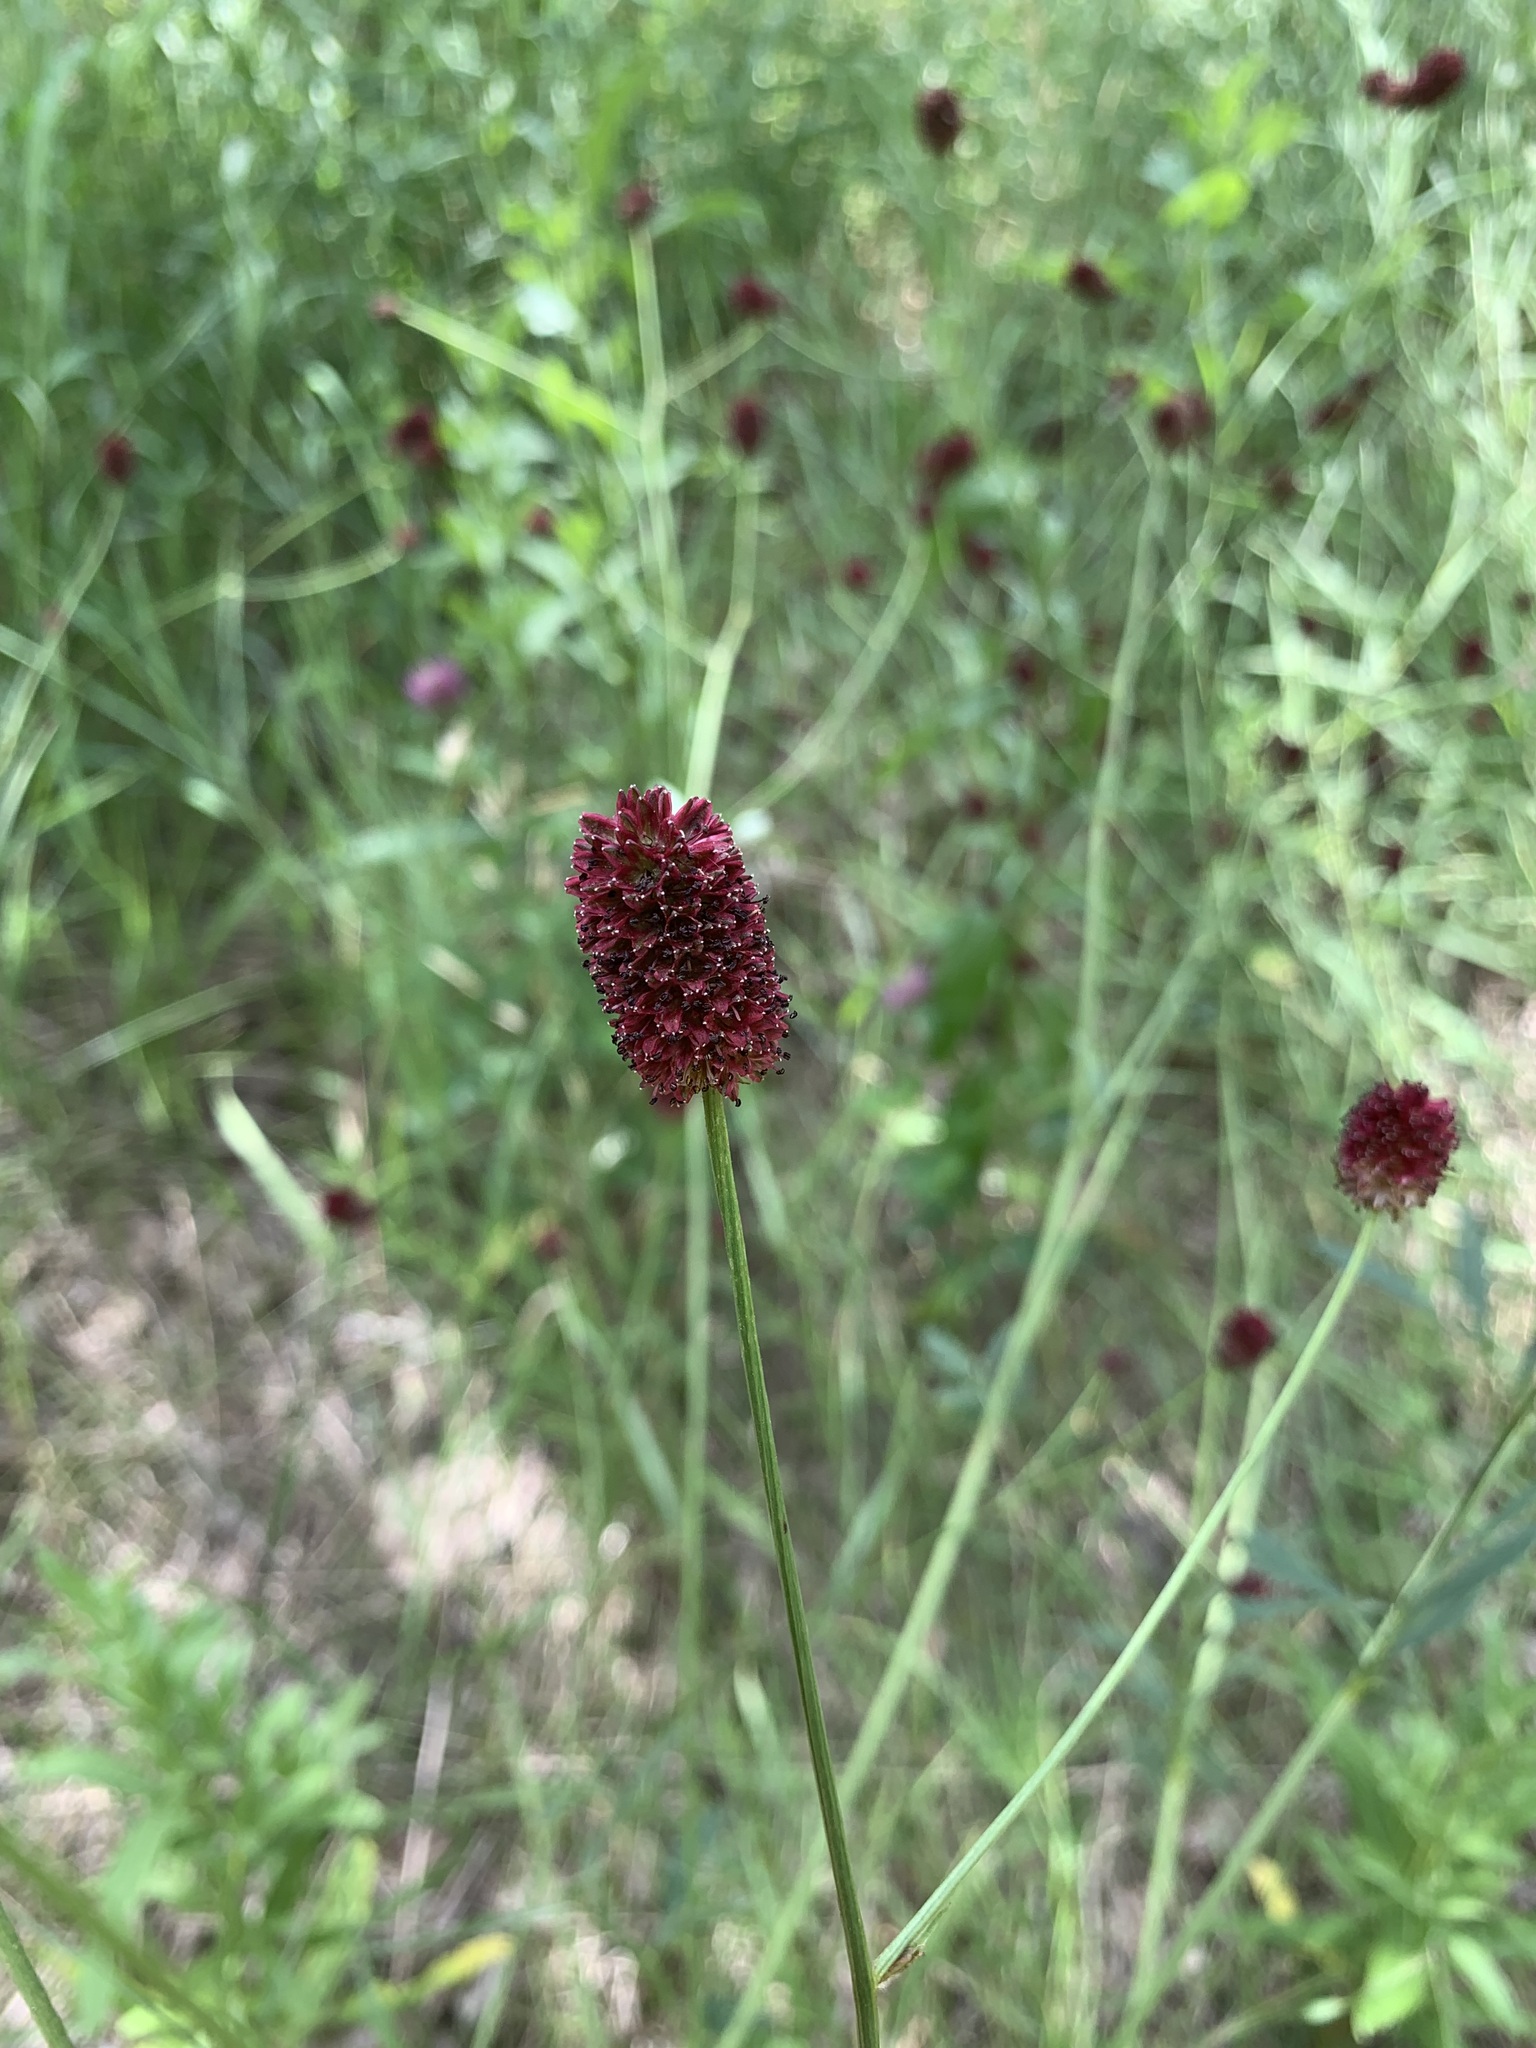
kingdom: Plantae
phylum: Tracheophyta
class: Magnoliopsida
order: Rosales
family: Rosaceae
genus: Sanguisorba
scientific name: Sanguisorba officinalis
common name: Great burnet
